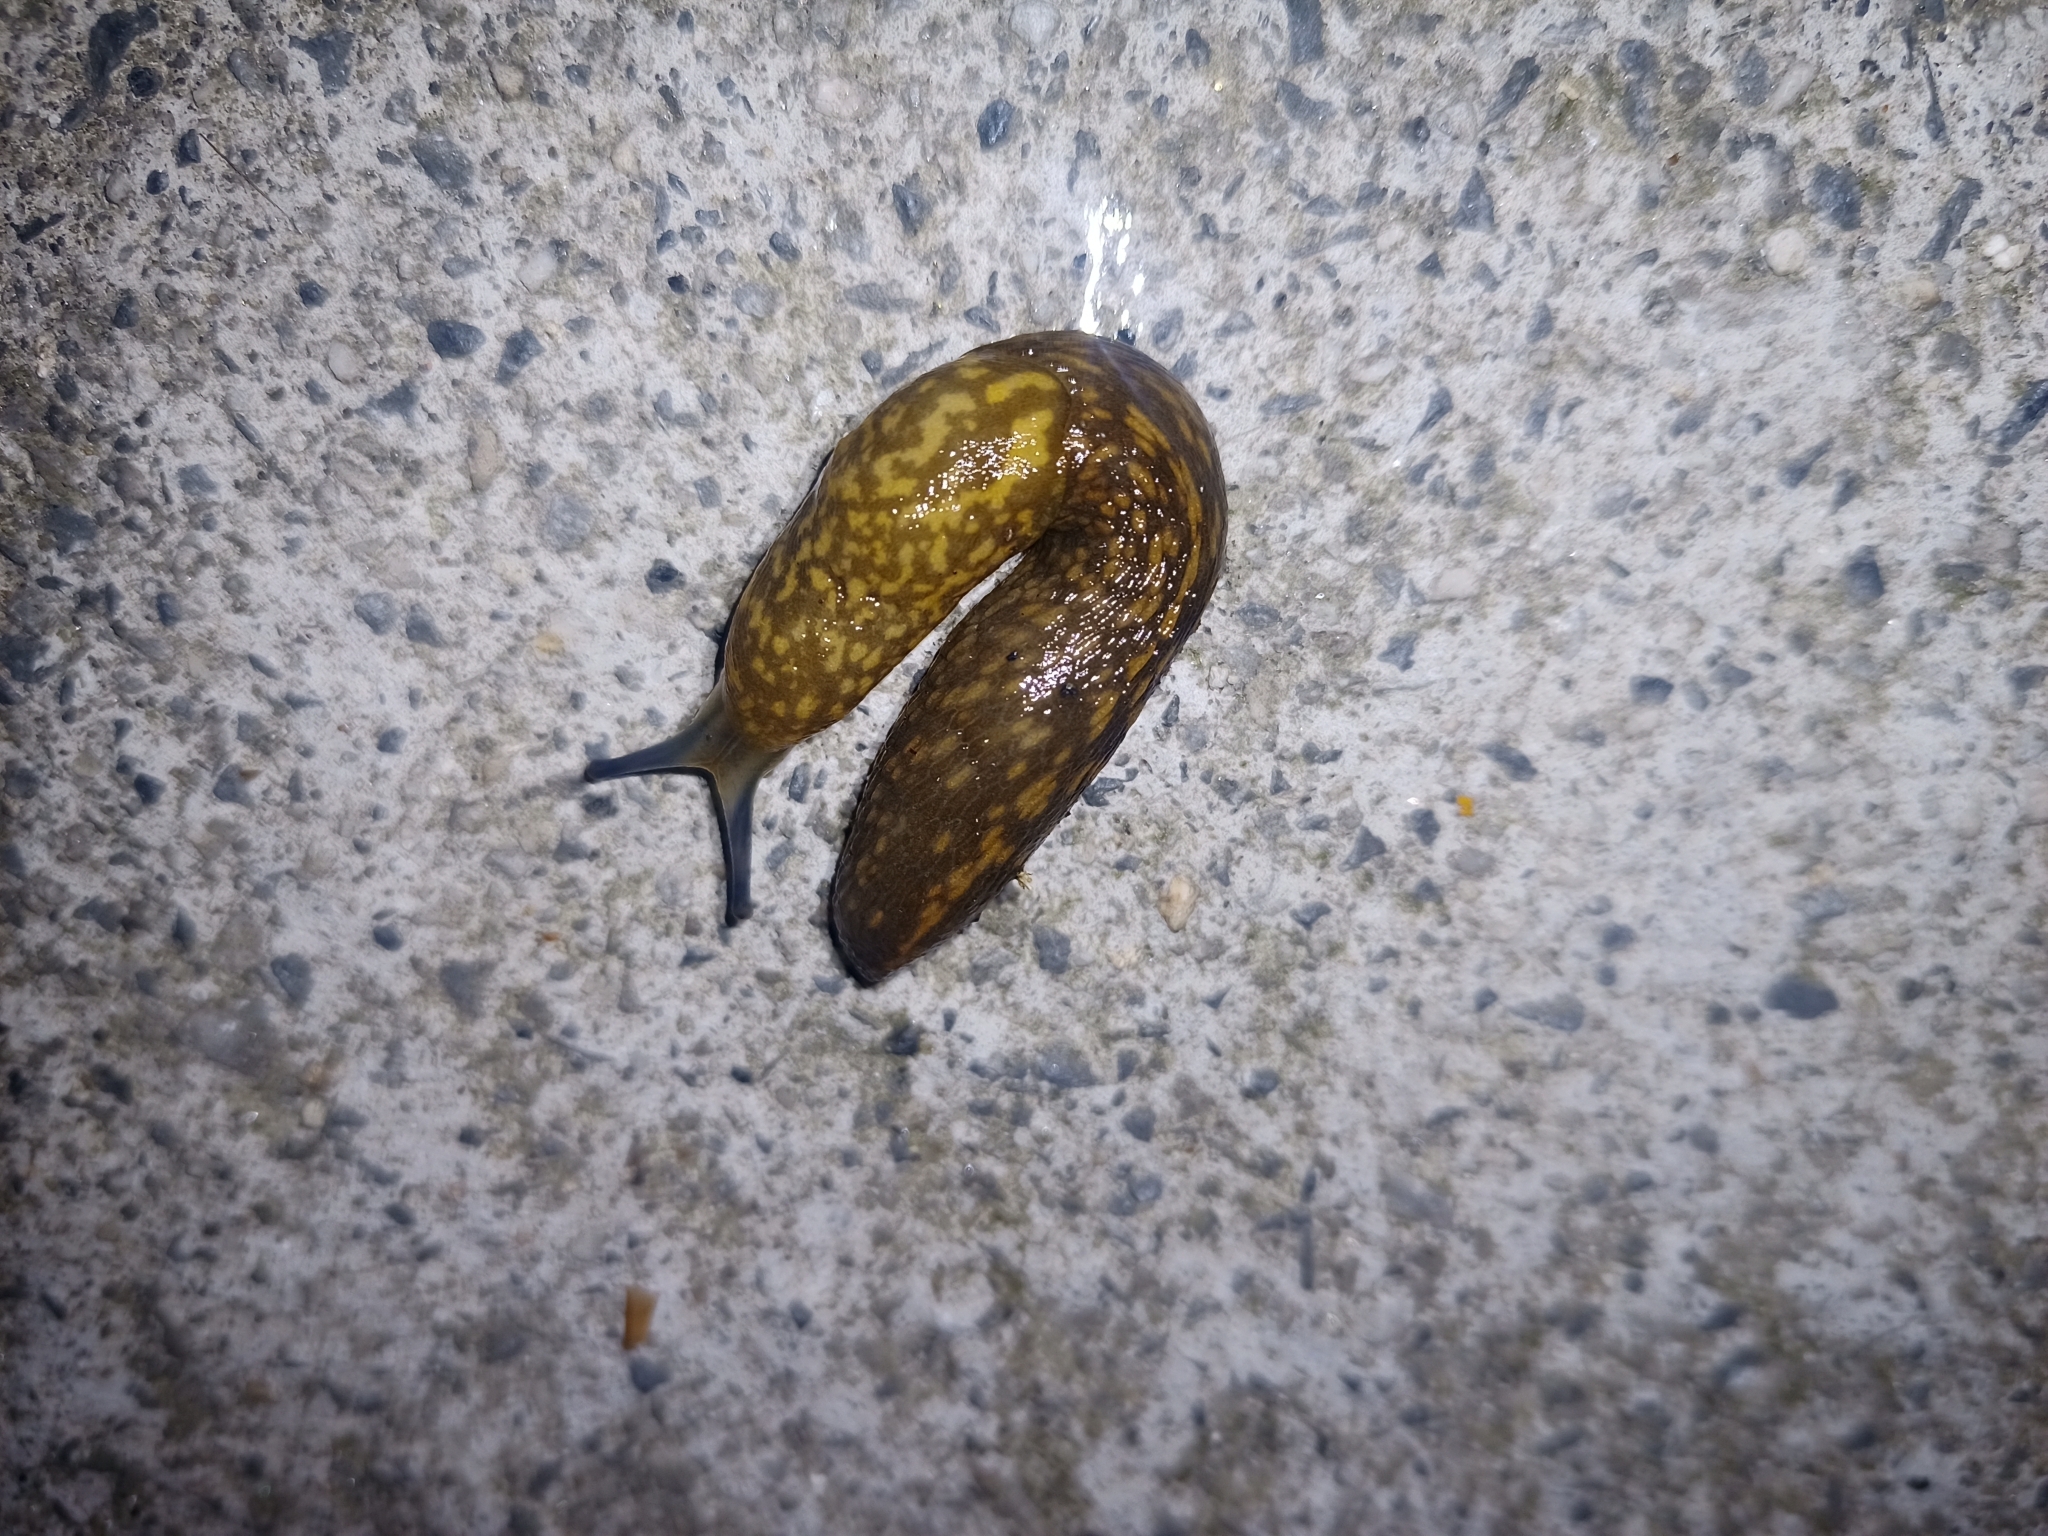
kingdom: Animalia
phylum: Mollusca
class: Gastropoda
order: Stylommatophora
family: Limacidae
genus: Limacus
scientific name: Limacus flavus
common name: Yellow gardenslug
